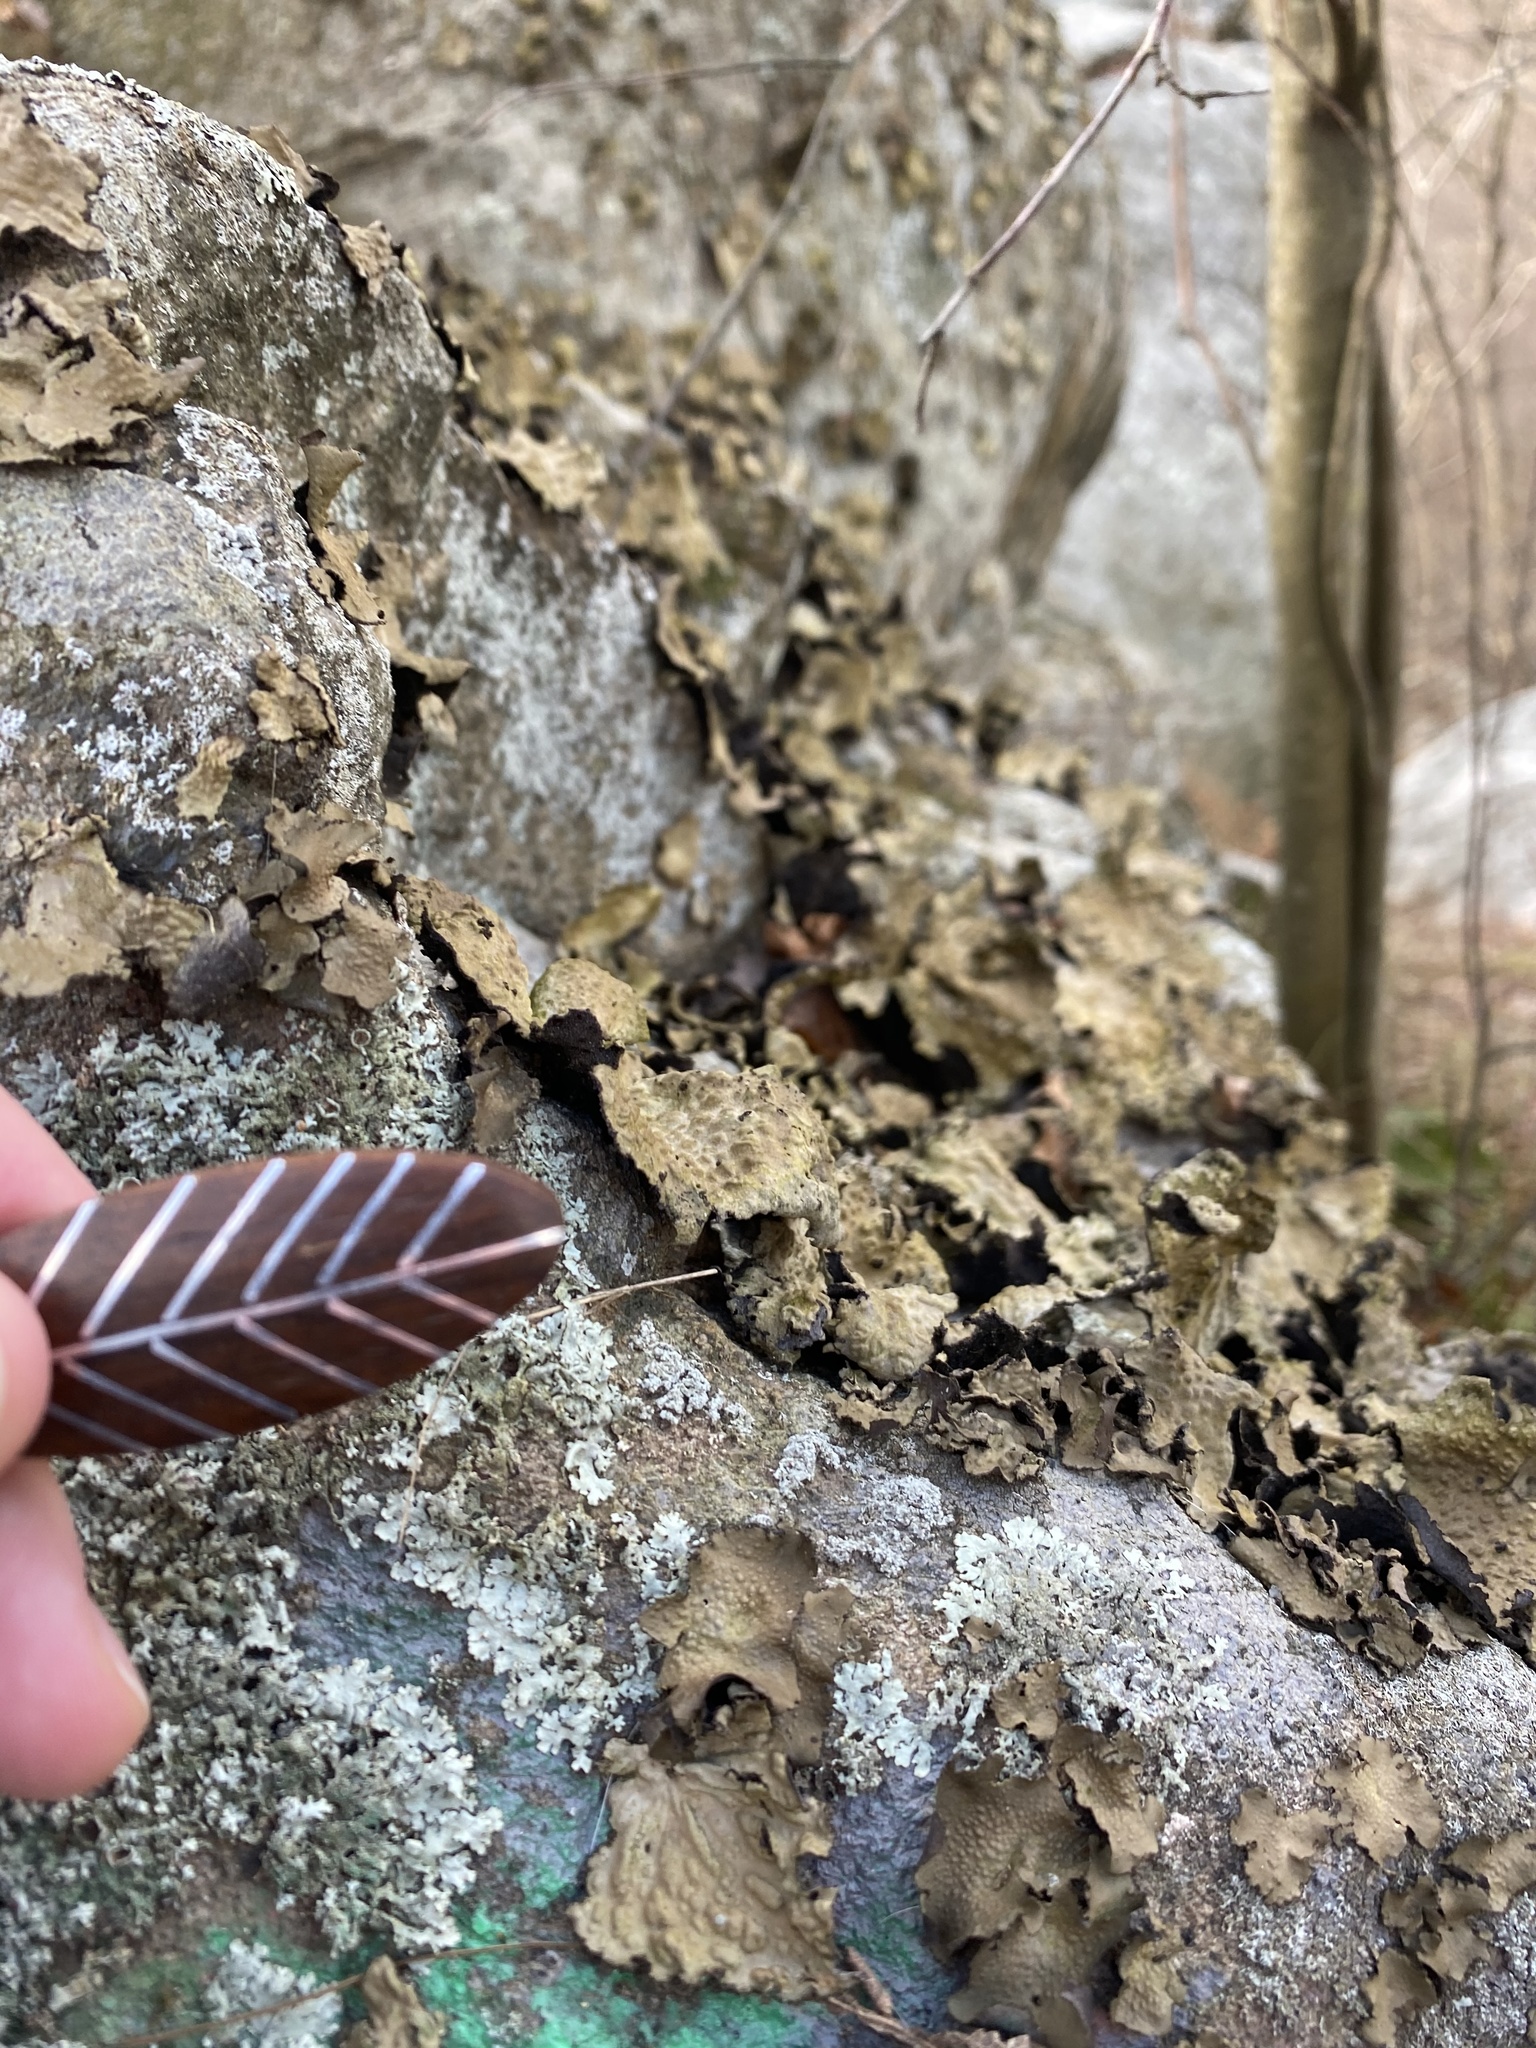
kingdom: Fungi
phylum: Ascomycota
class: Lecanoromycetes
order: Umbilicariales
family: Umbilicariaceae
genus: Lasallia
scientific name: Lasallia pensylvanica
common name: Blackened toadskin lichen
